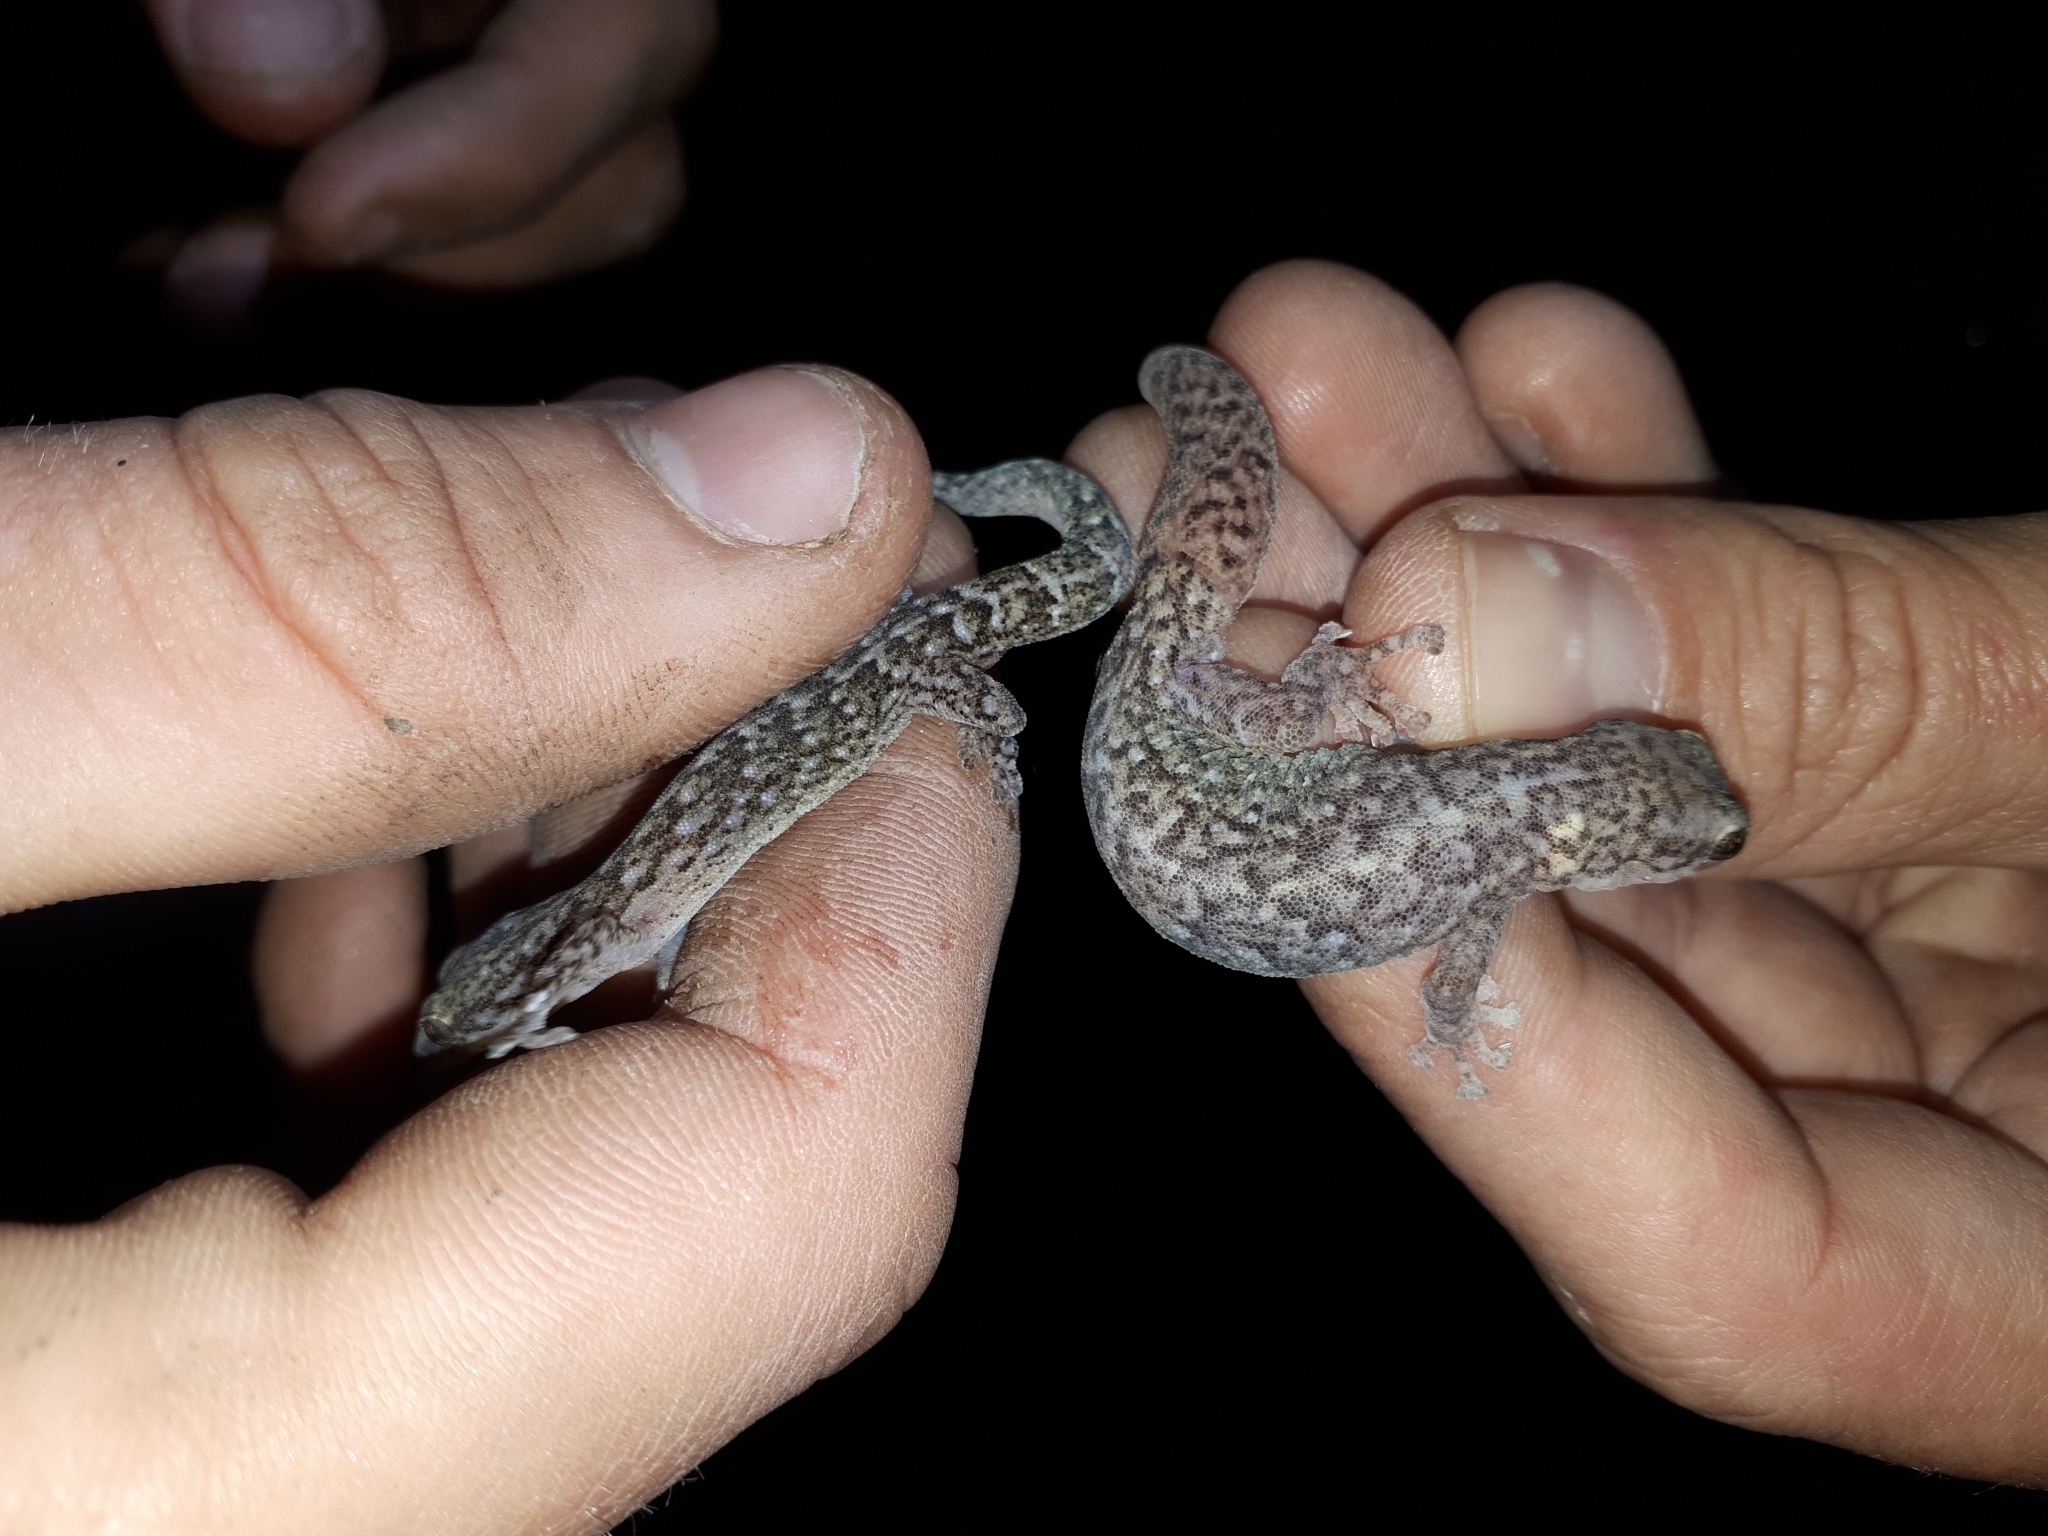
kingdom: Animalia
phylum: Chordata
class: Squamata
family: Gekkonidae
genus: Afrogecko
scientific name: Afrogecko porphyreus
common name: Marbled leaf-toed gecko
